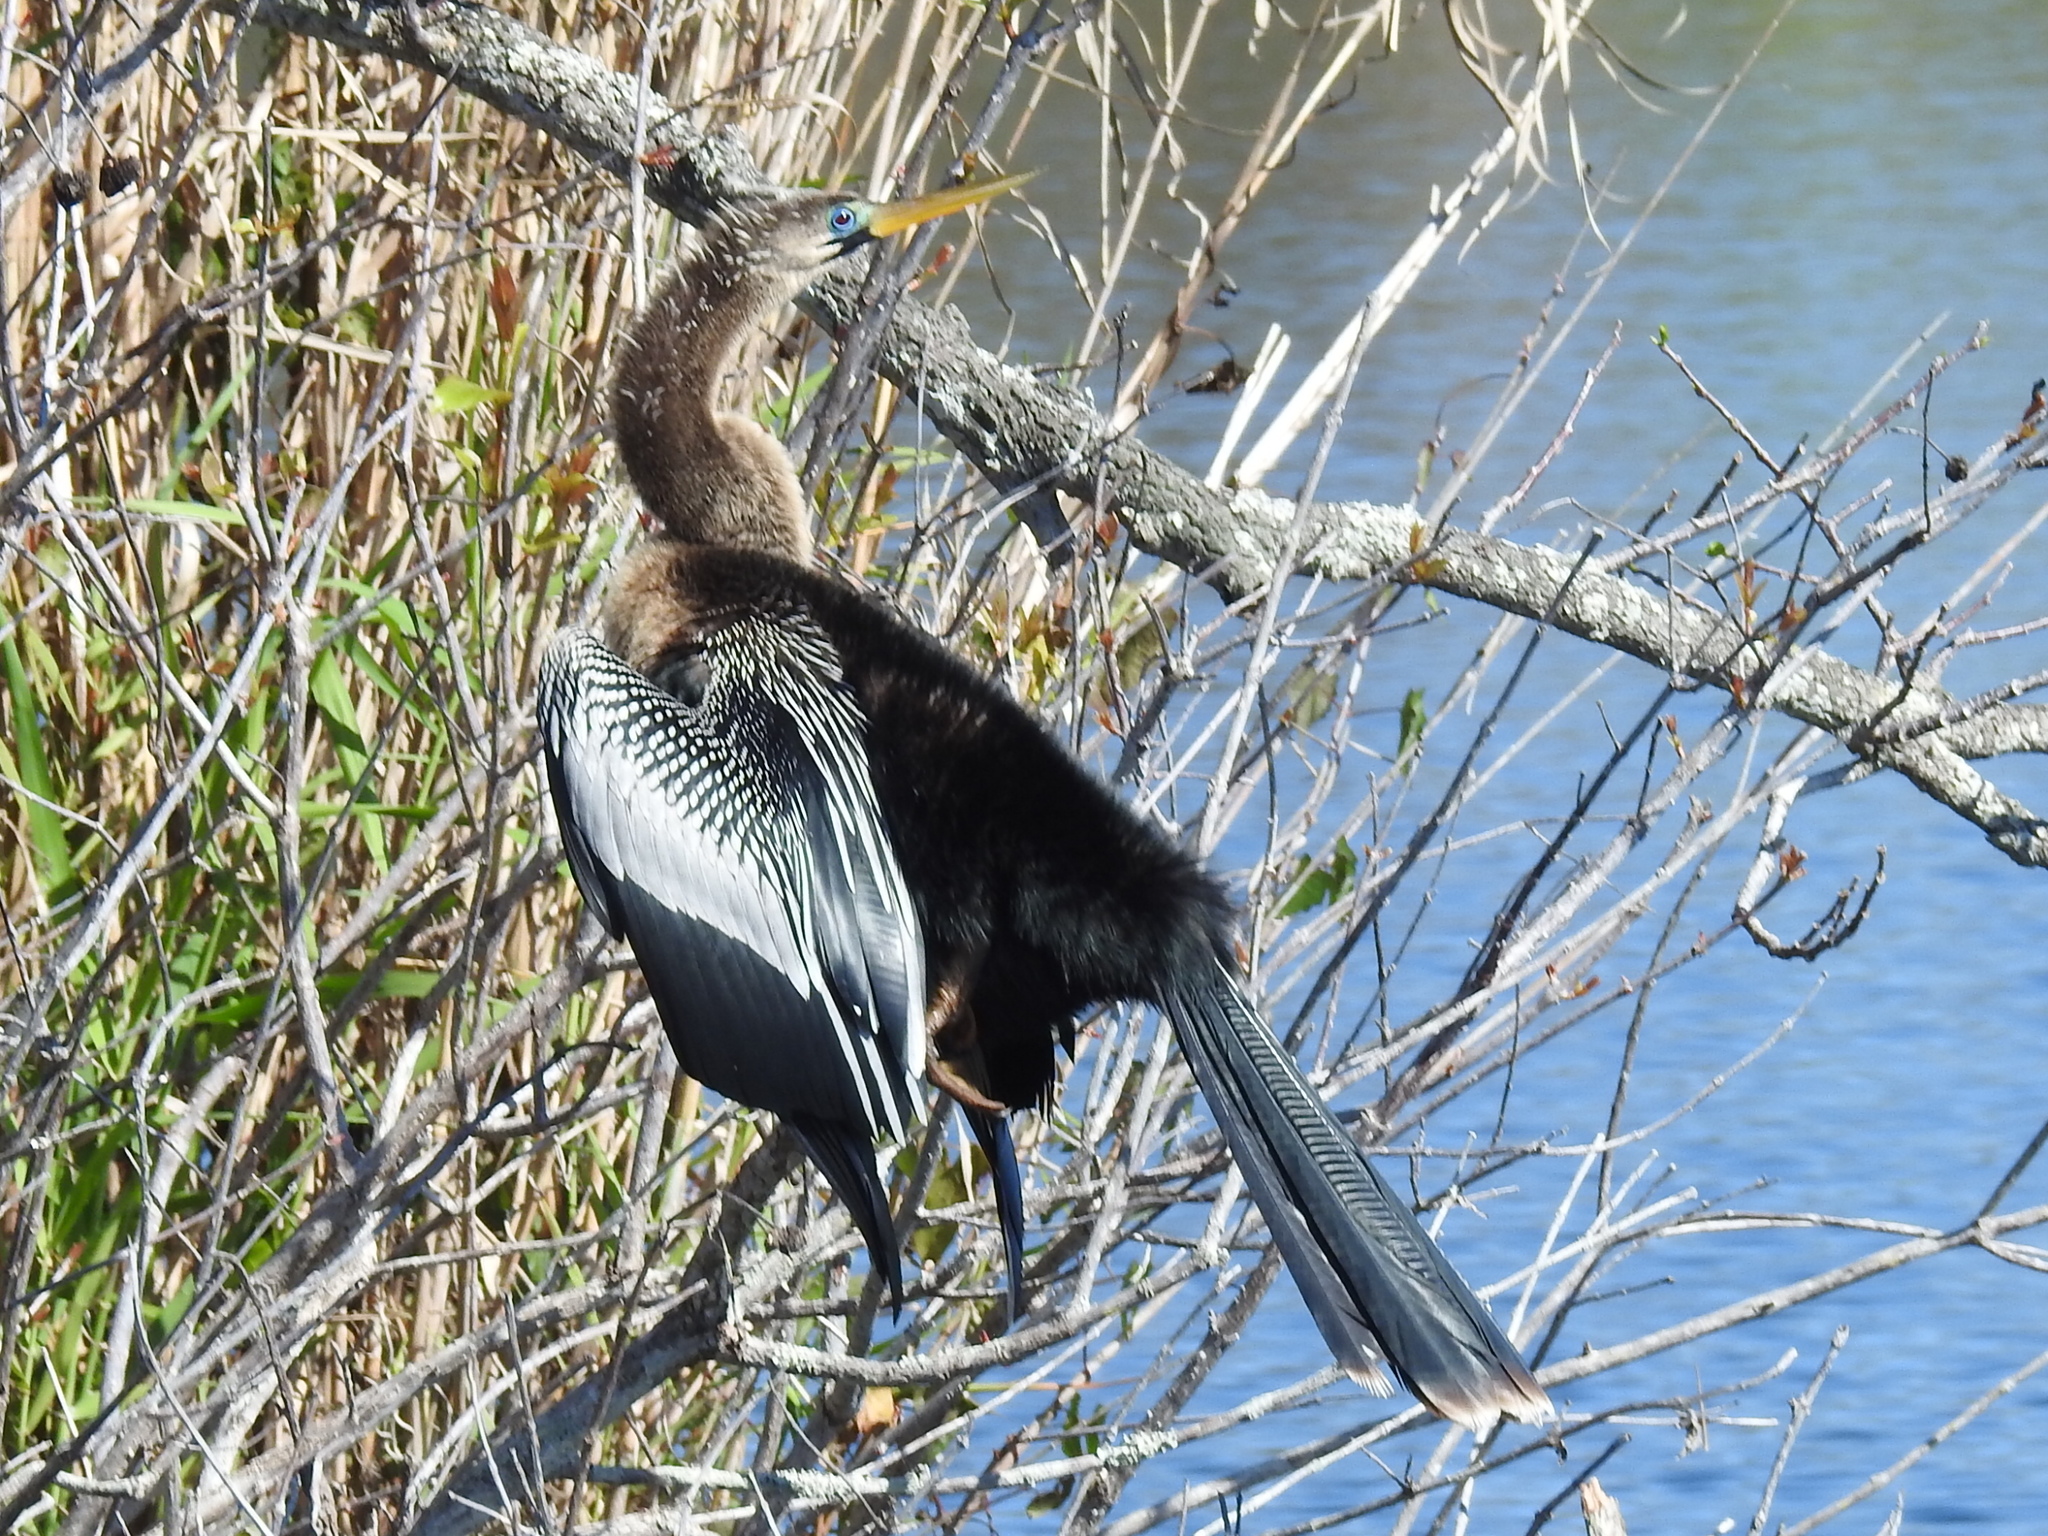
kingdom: Animalia
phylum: Chordata
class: Aves
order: Suliformes
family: Anhingidae
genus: Anhinga
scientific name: Anhinga anhinga
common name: Anhinga
